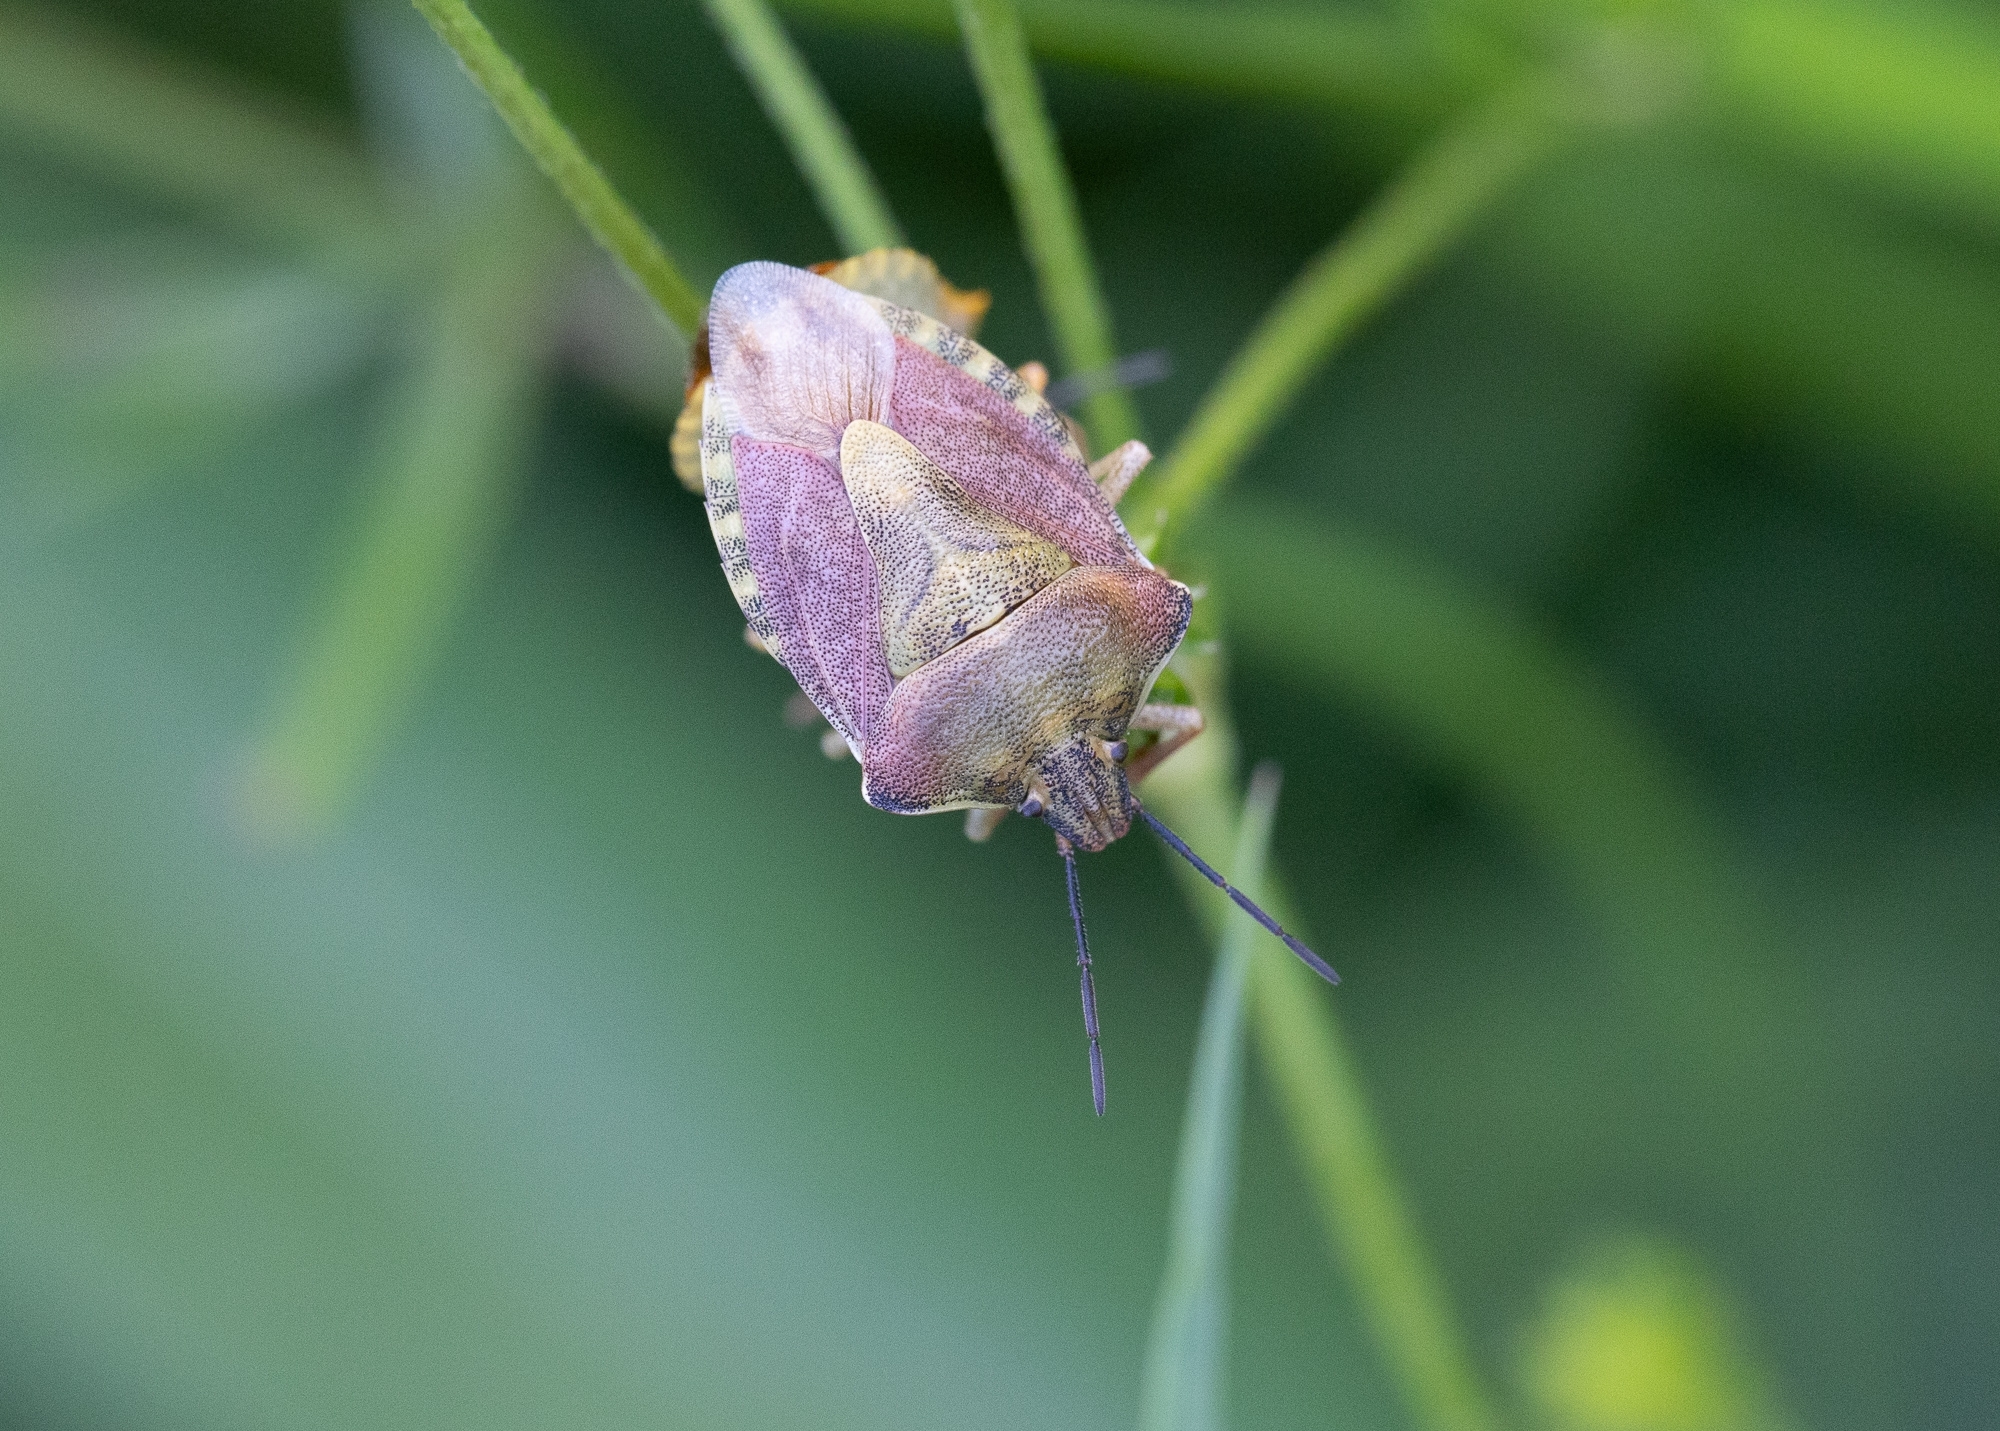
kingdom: Animalia
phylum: Arthropoda
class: Insecta
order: Hemiptera
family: Pentatomidae
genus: Carpocoris
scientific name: Carpocoris purpureipennis
